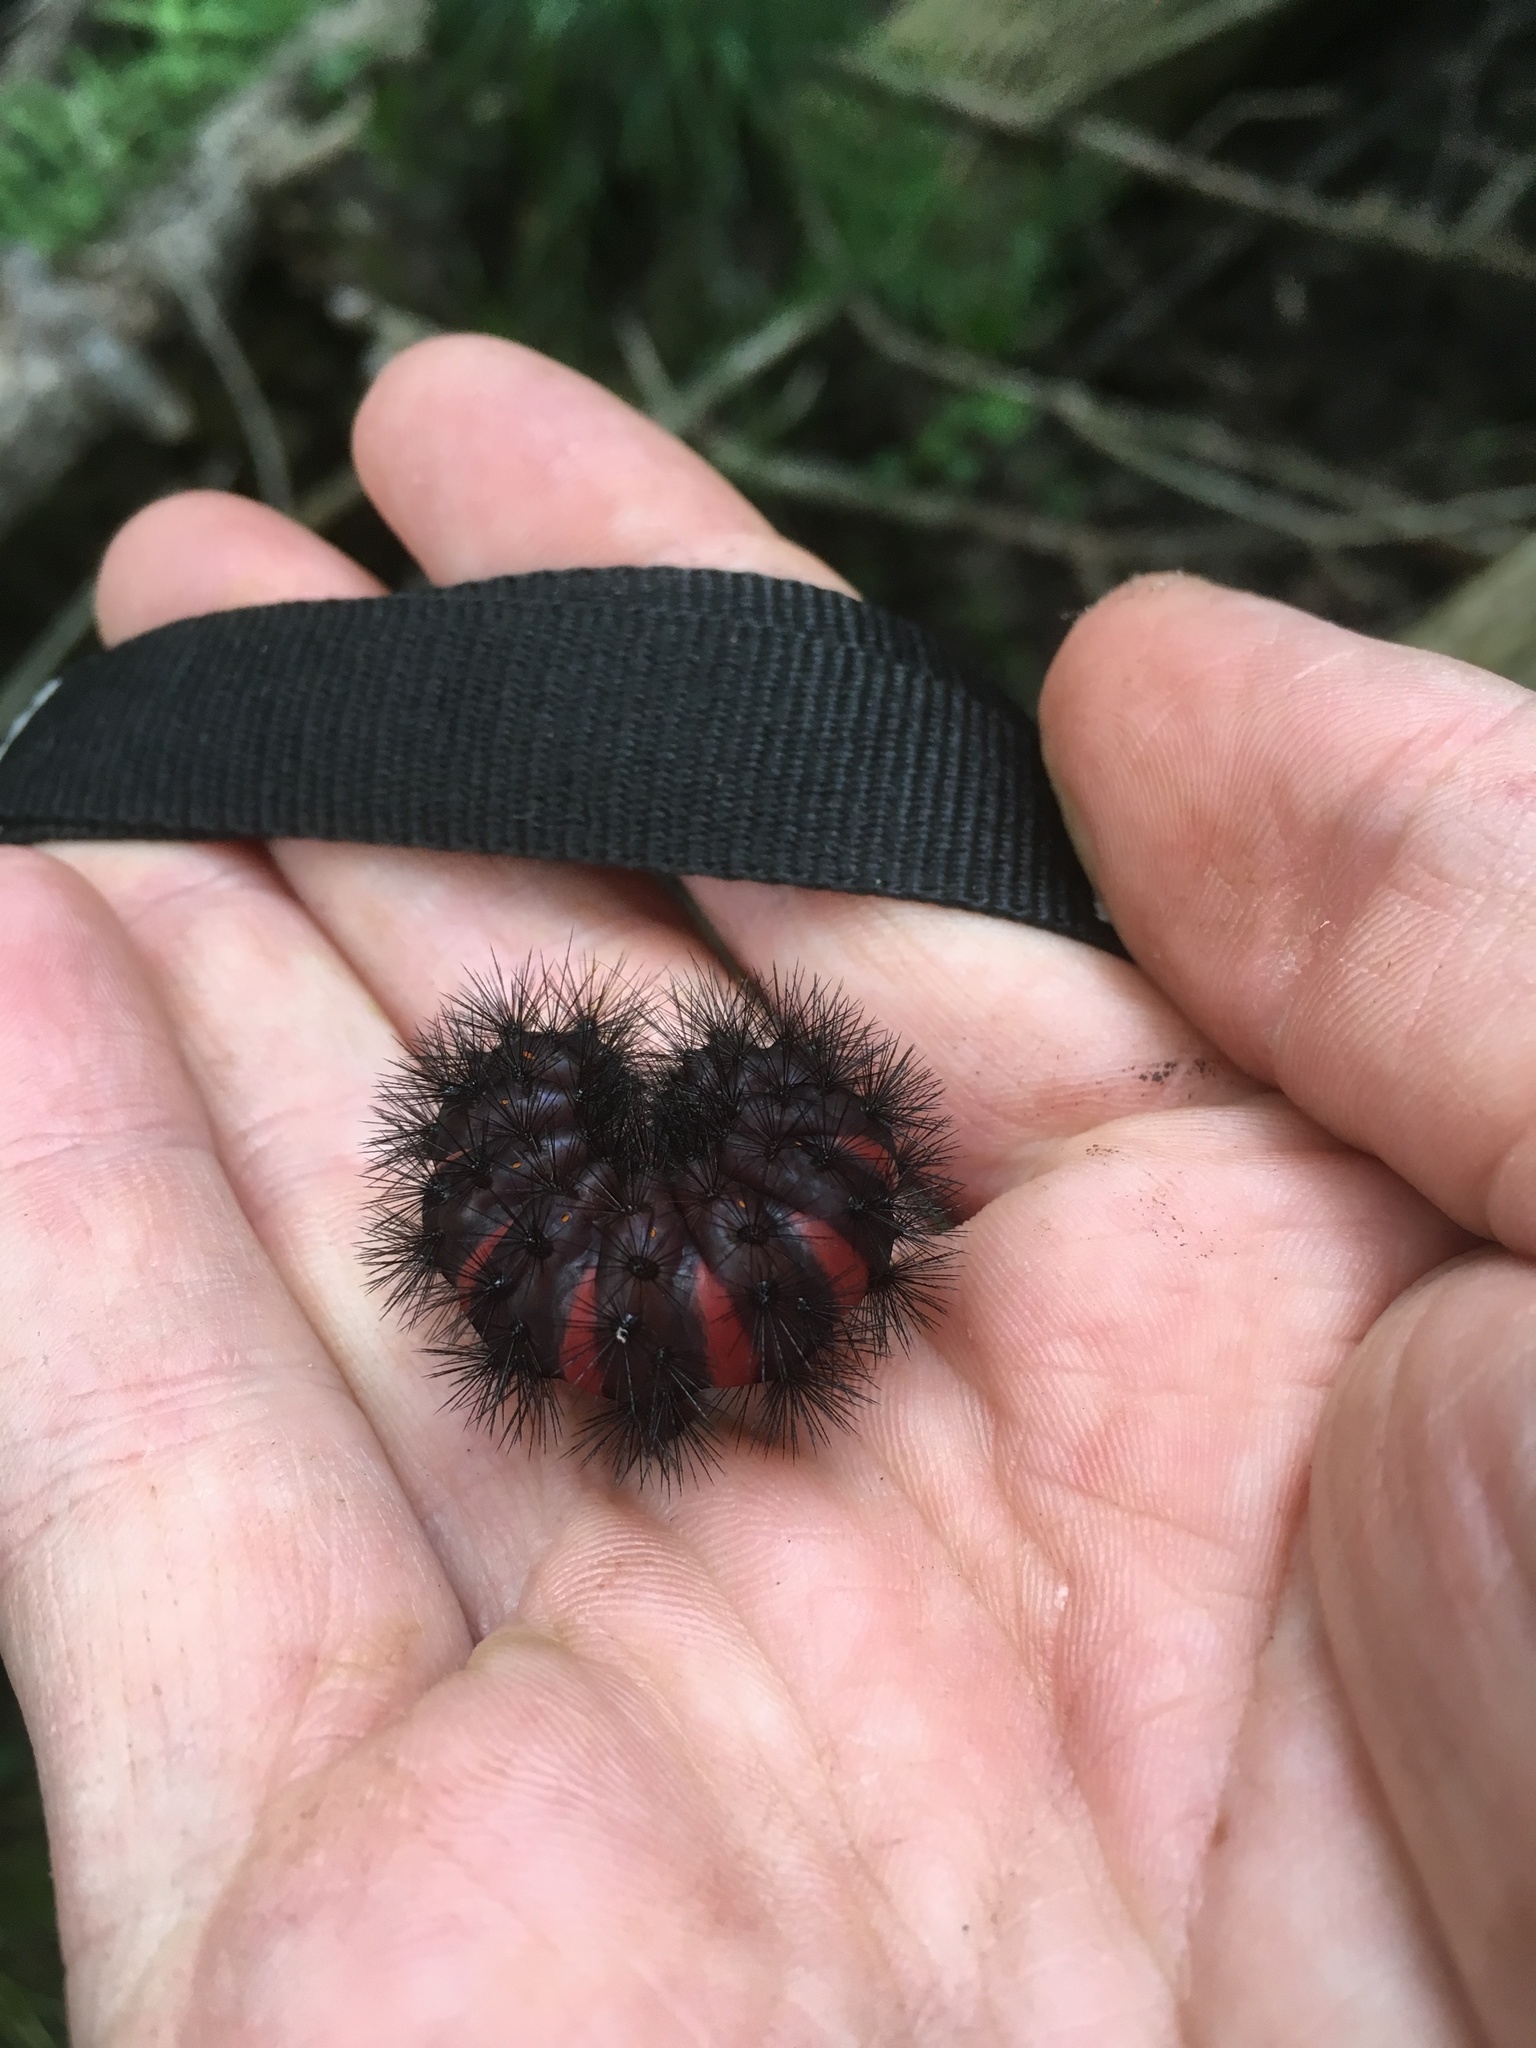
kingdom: Animalia
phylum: Arthropoda
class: Insecta
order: Lepidoptera
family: Erebidae
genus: Hypercompe
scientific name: Hypercompe scribonia
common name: Giant leopard moth
